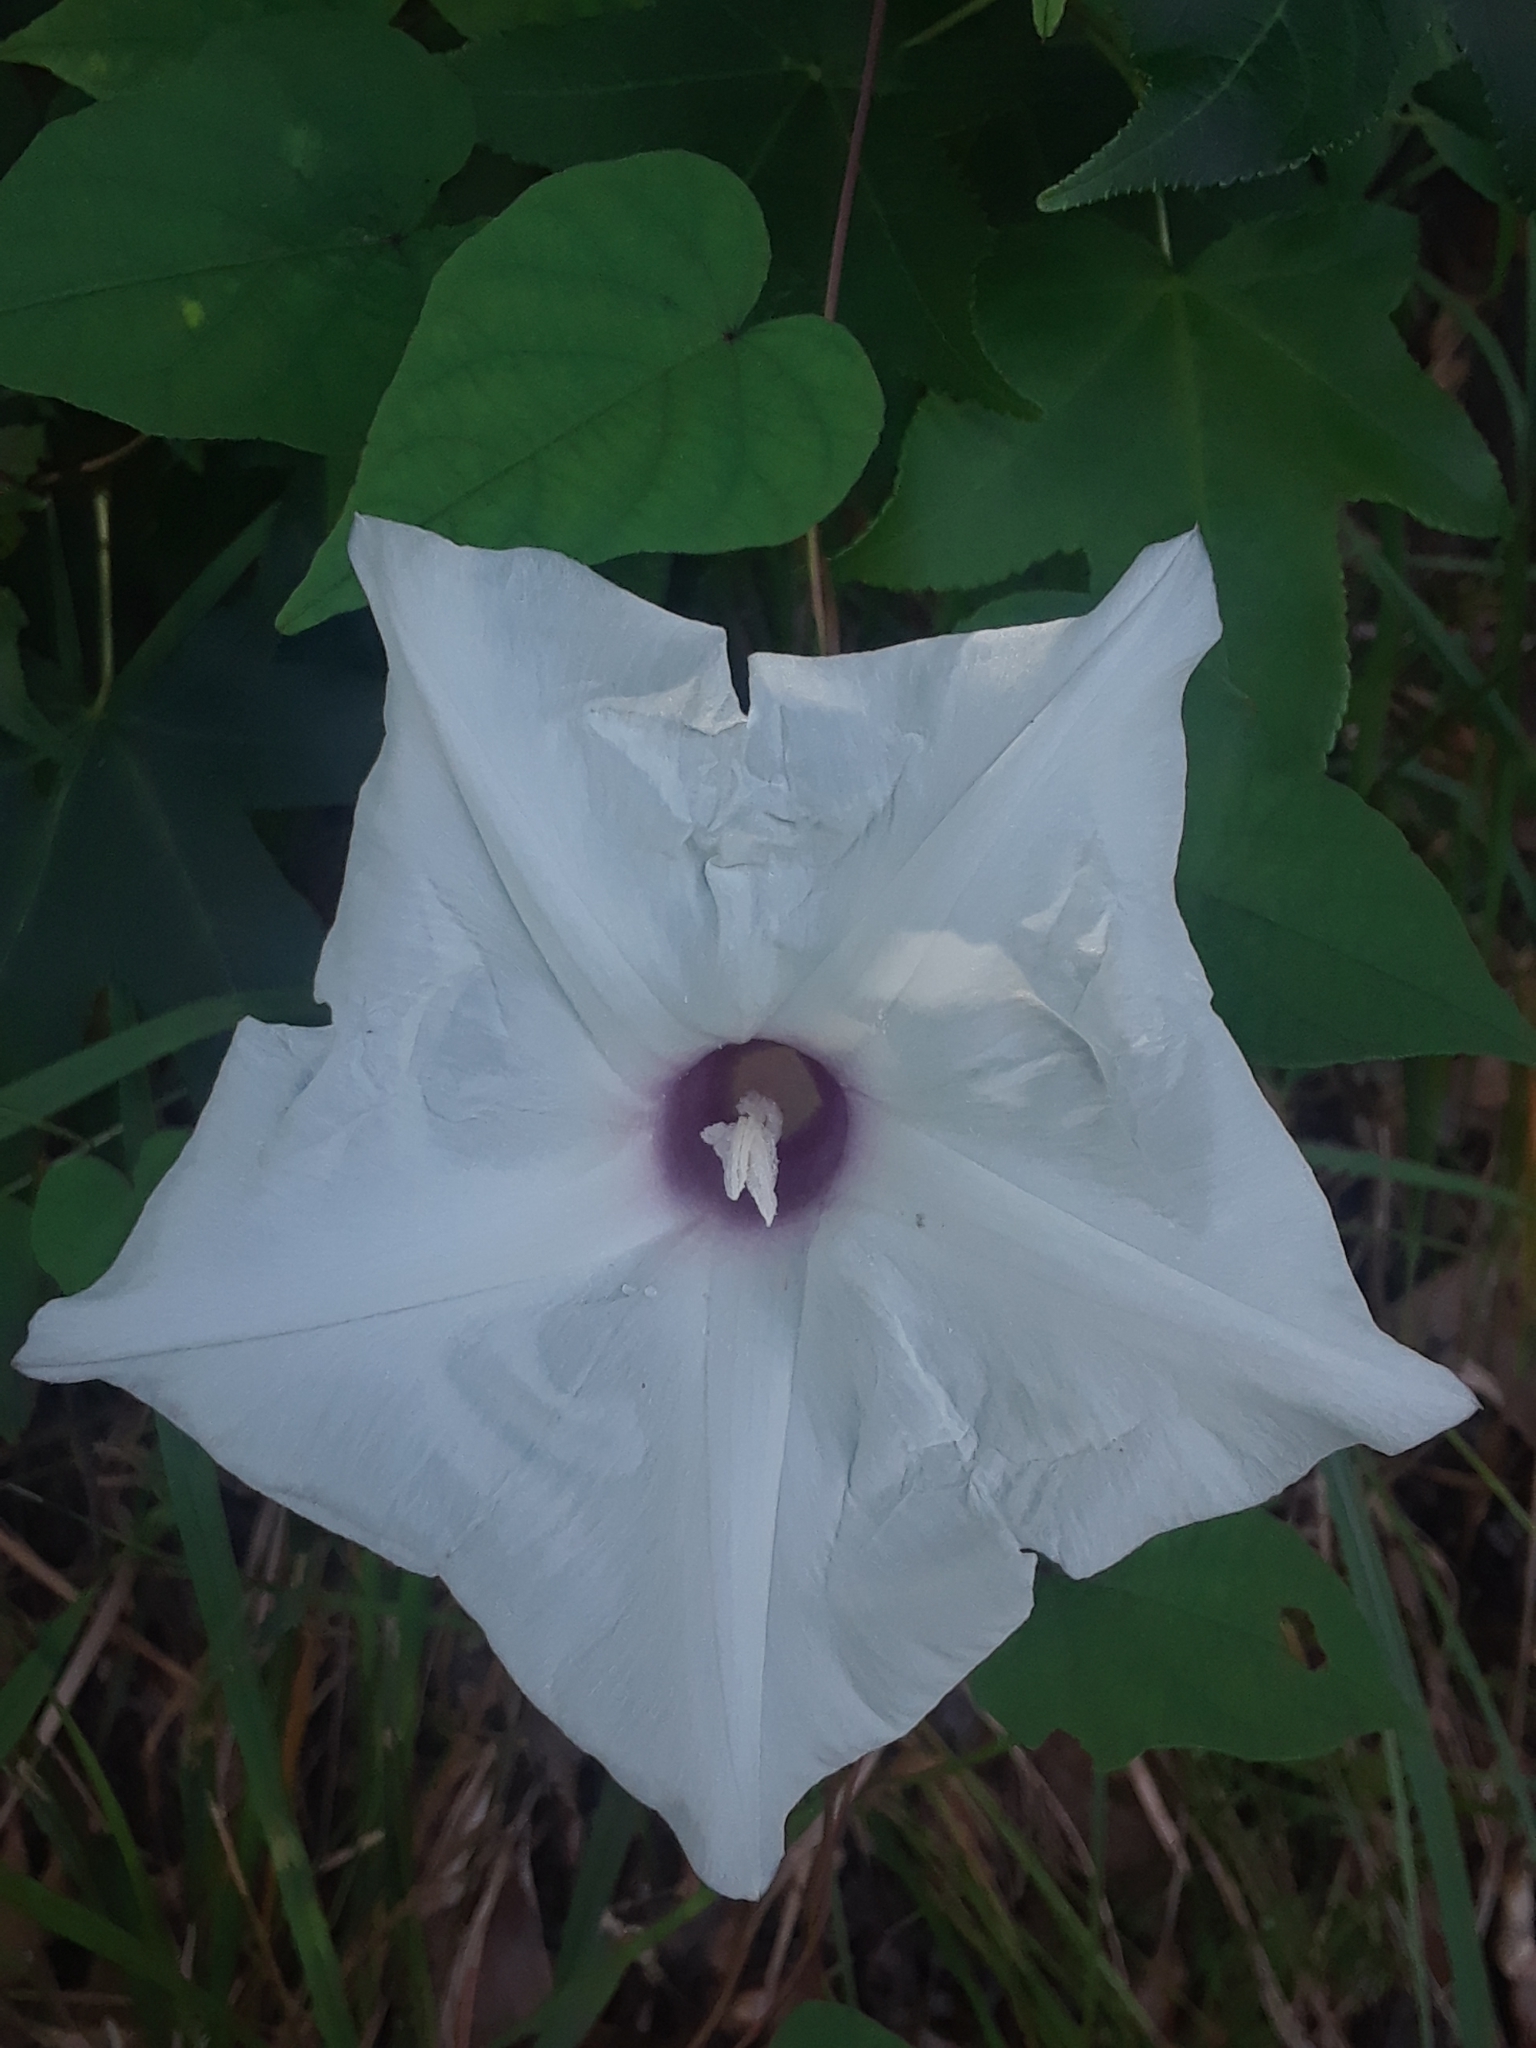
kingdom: Plantae
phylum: Tracheophyta
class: Magnoliopsida
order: Solanales
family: Convolvulaceae
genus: Ipomoea
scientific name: Ipomoea pandurata
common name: Man-of-the-earth
